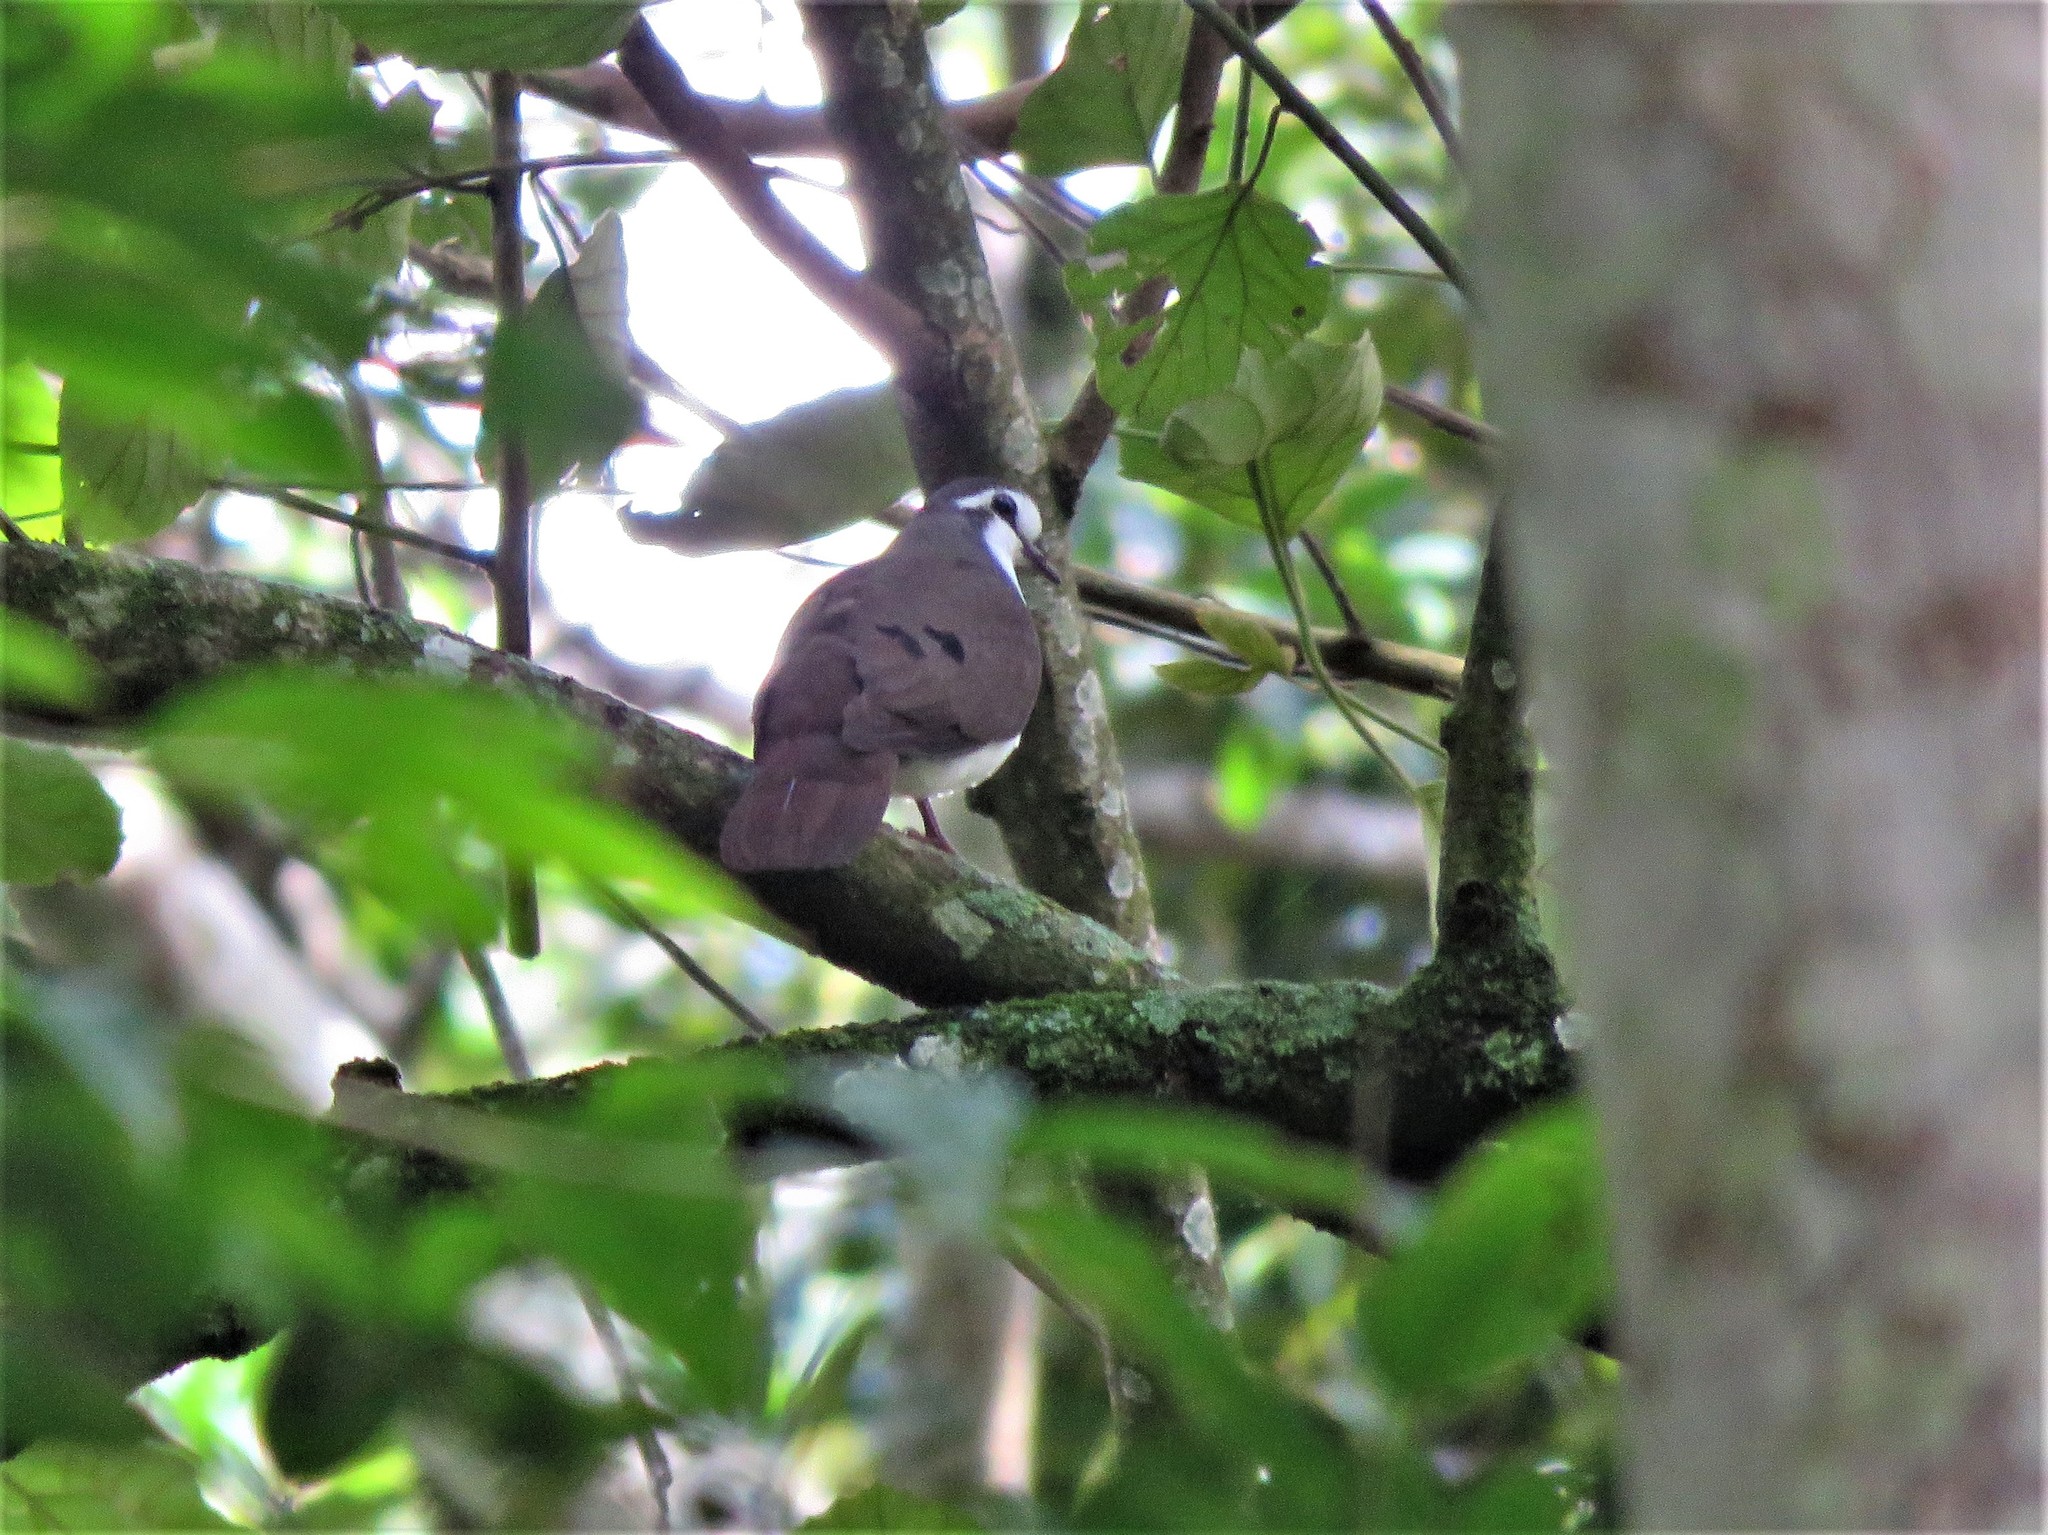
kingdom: Animalia
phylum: Chordata
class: Aves
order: Columbiformes
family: Columbidae
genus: Turtur
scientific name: Turtur tympanistria
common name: Tambourine dove
